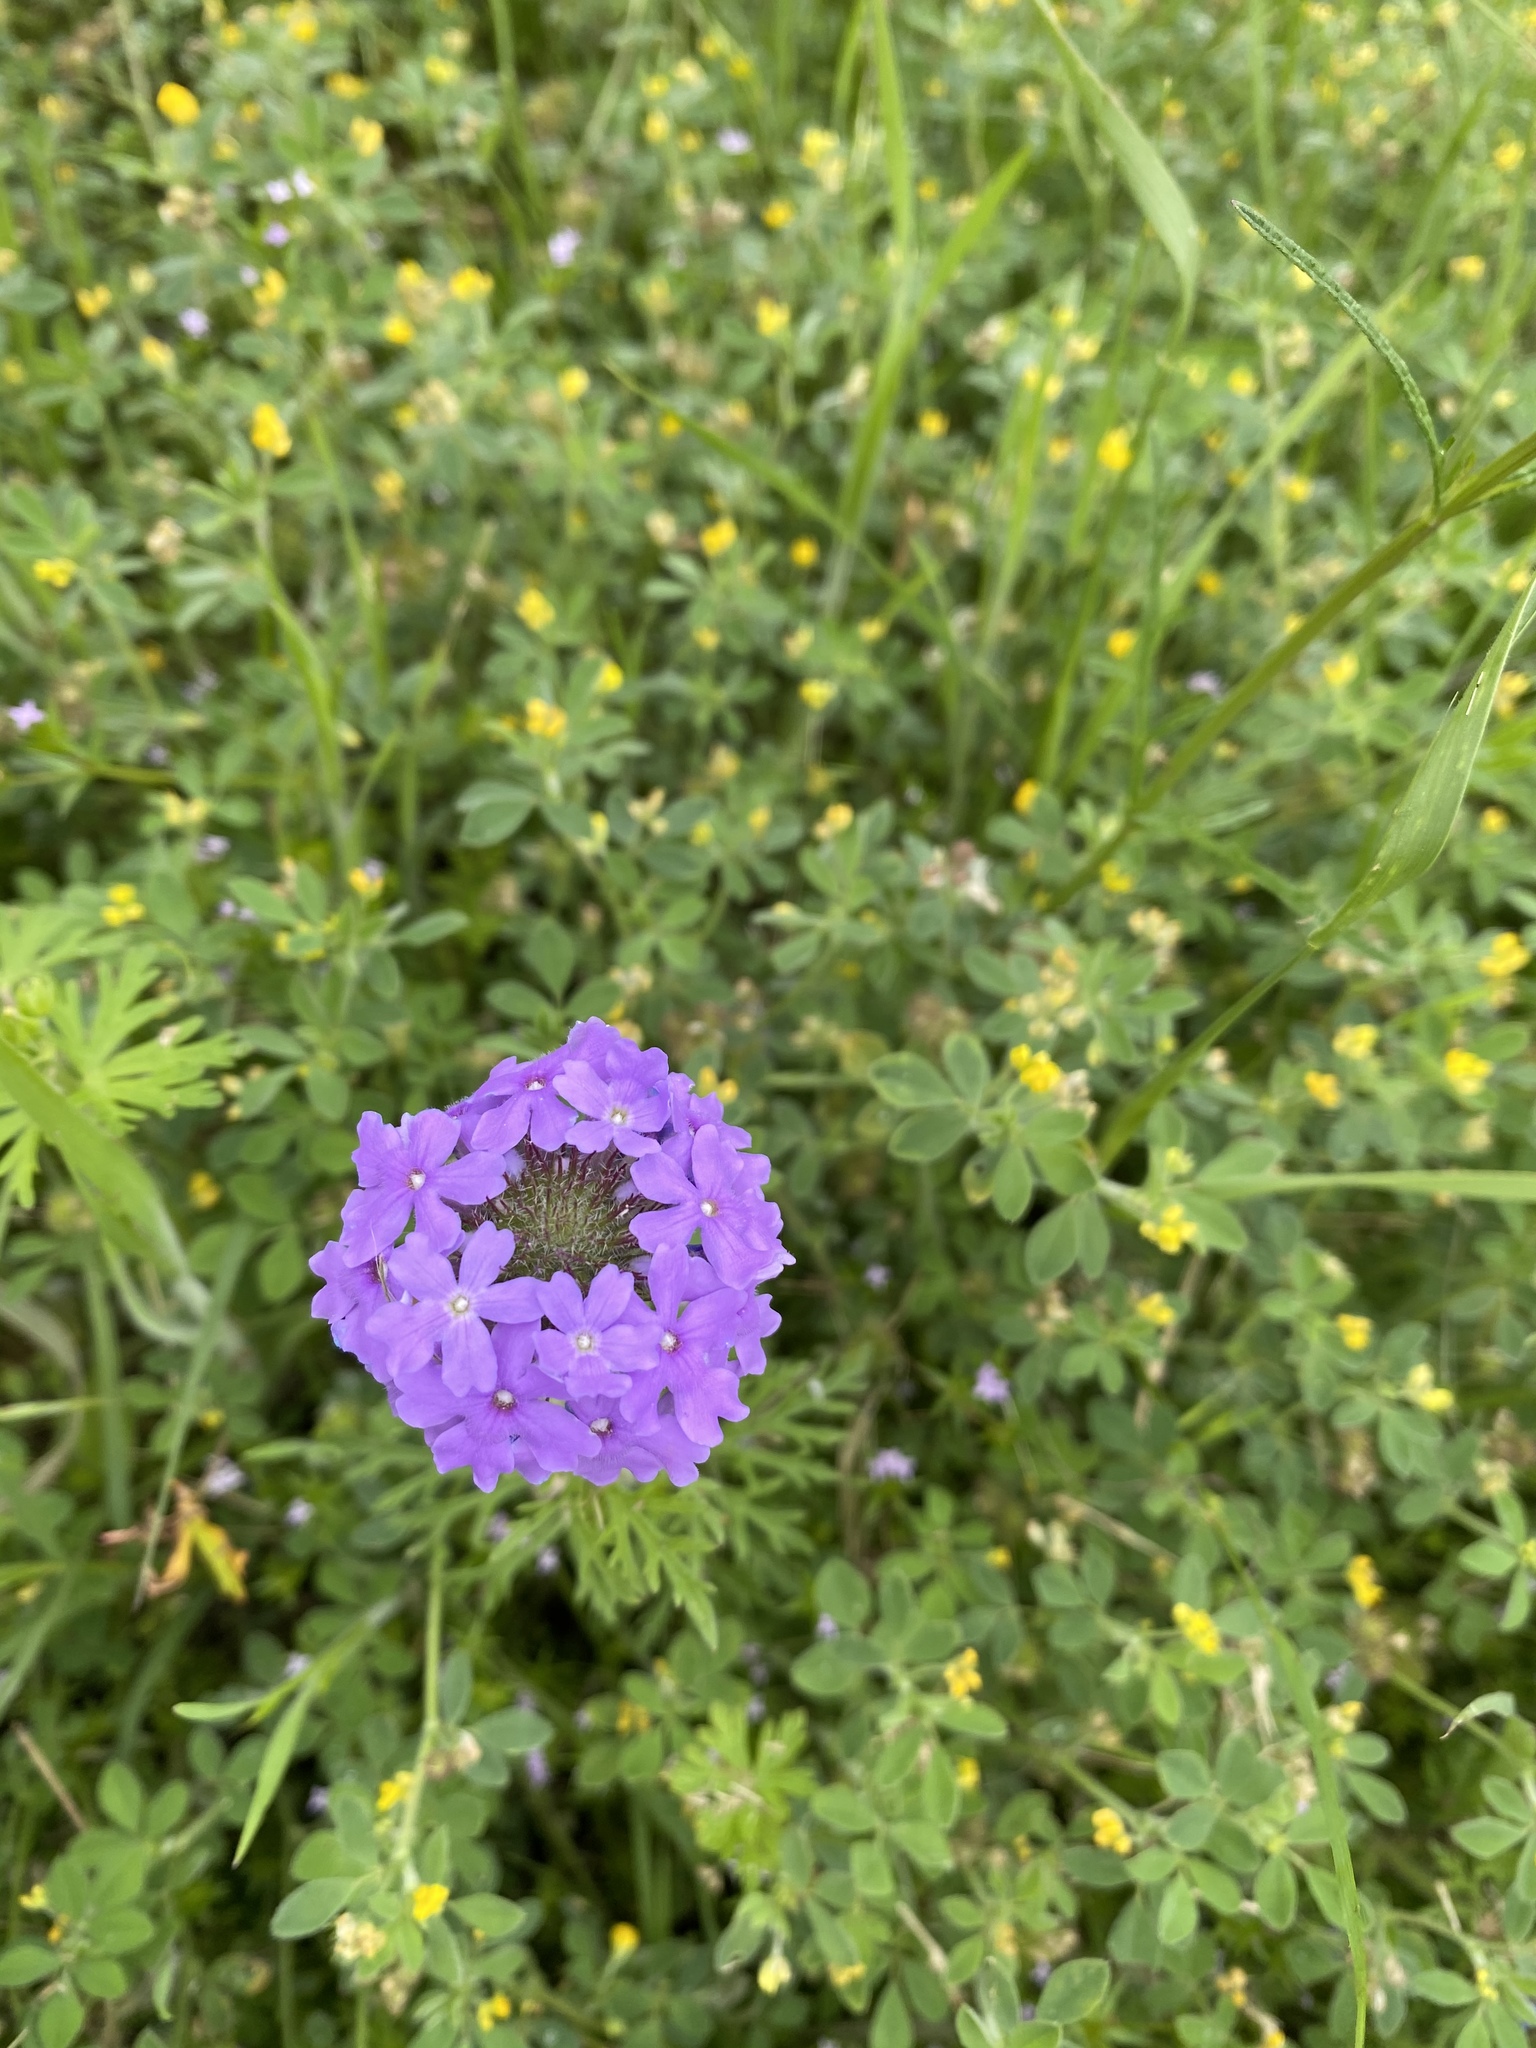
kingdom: Plantae
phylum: Tracheophyta
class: Magnoliopsida
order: Lamiales
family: Verbenaceae
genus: Verbena
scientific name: Verbena bipinnatifida
